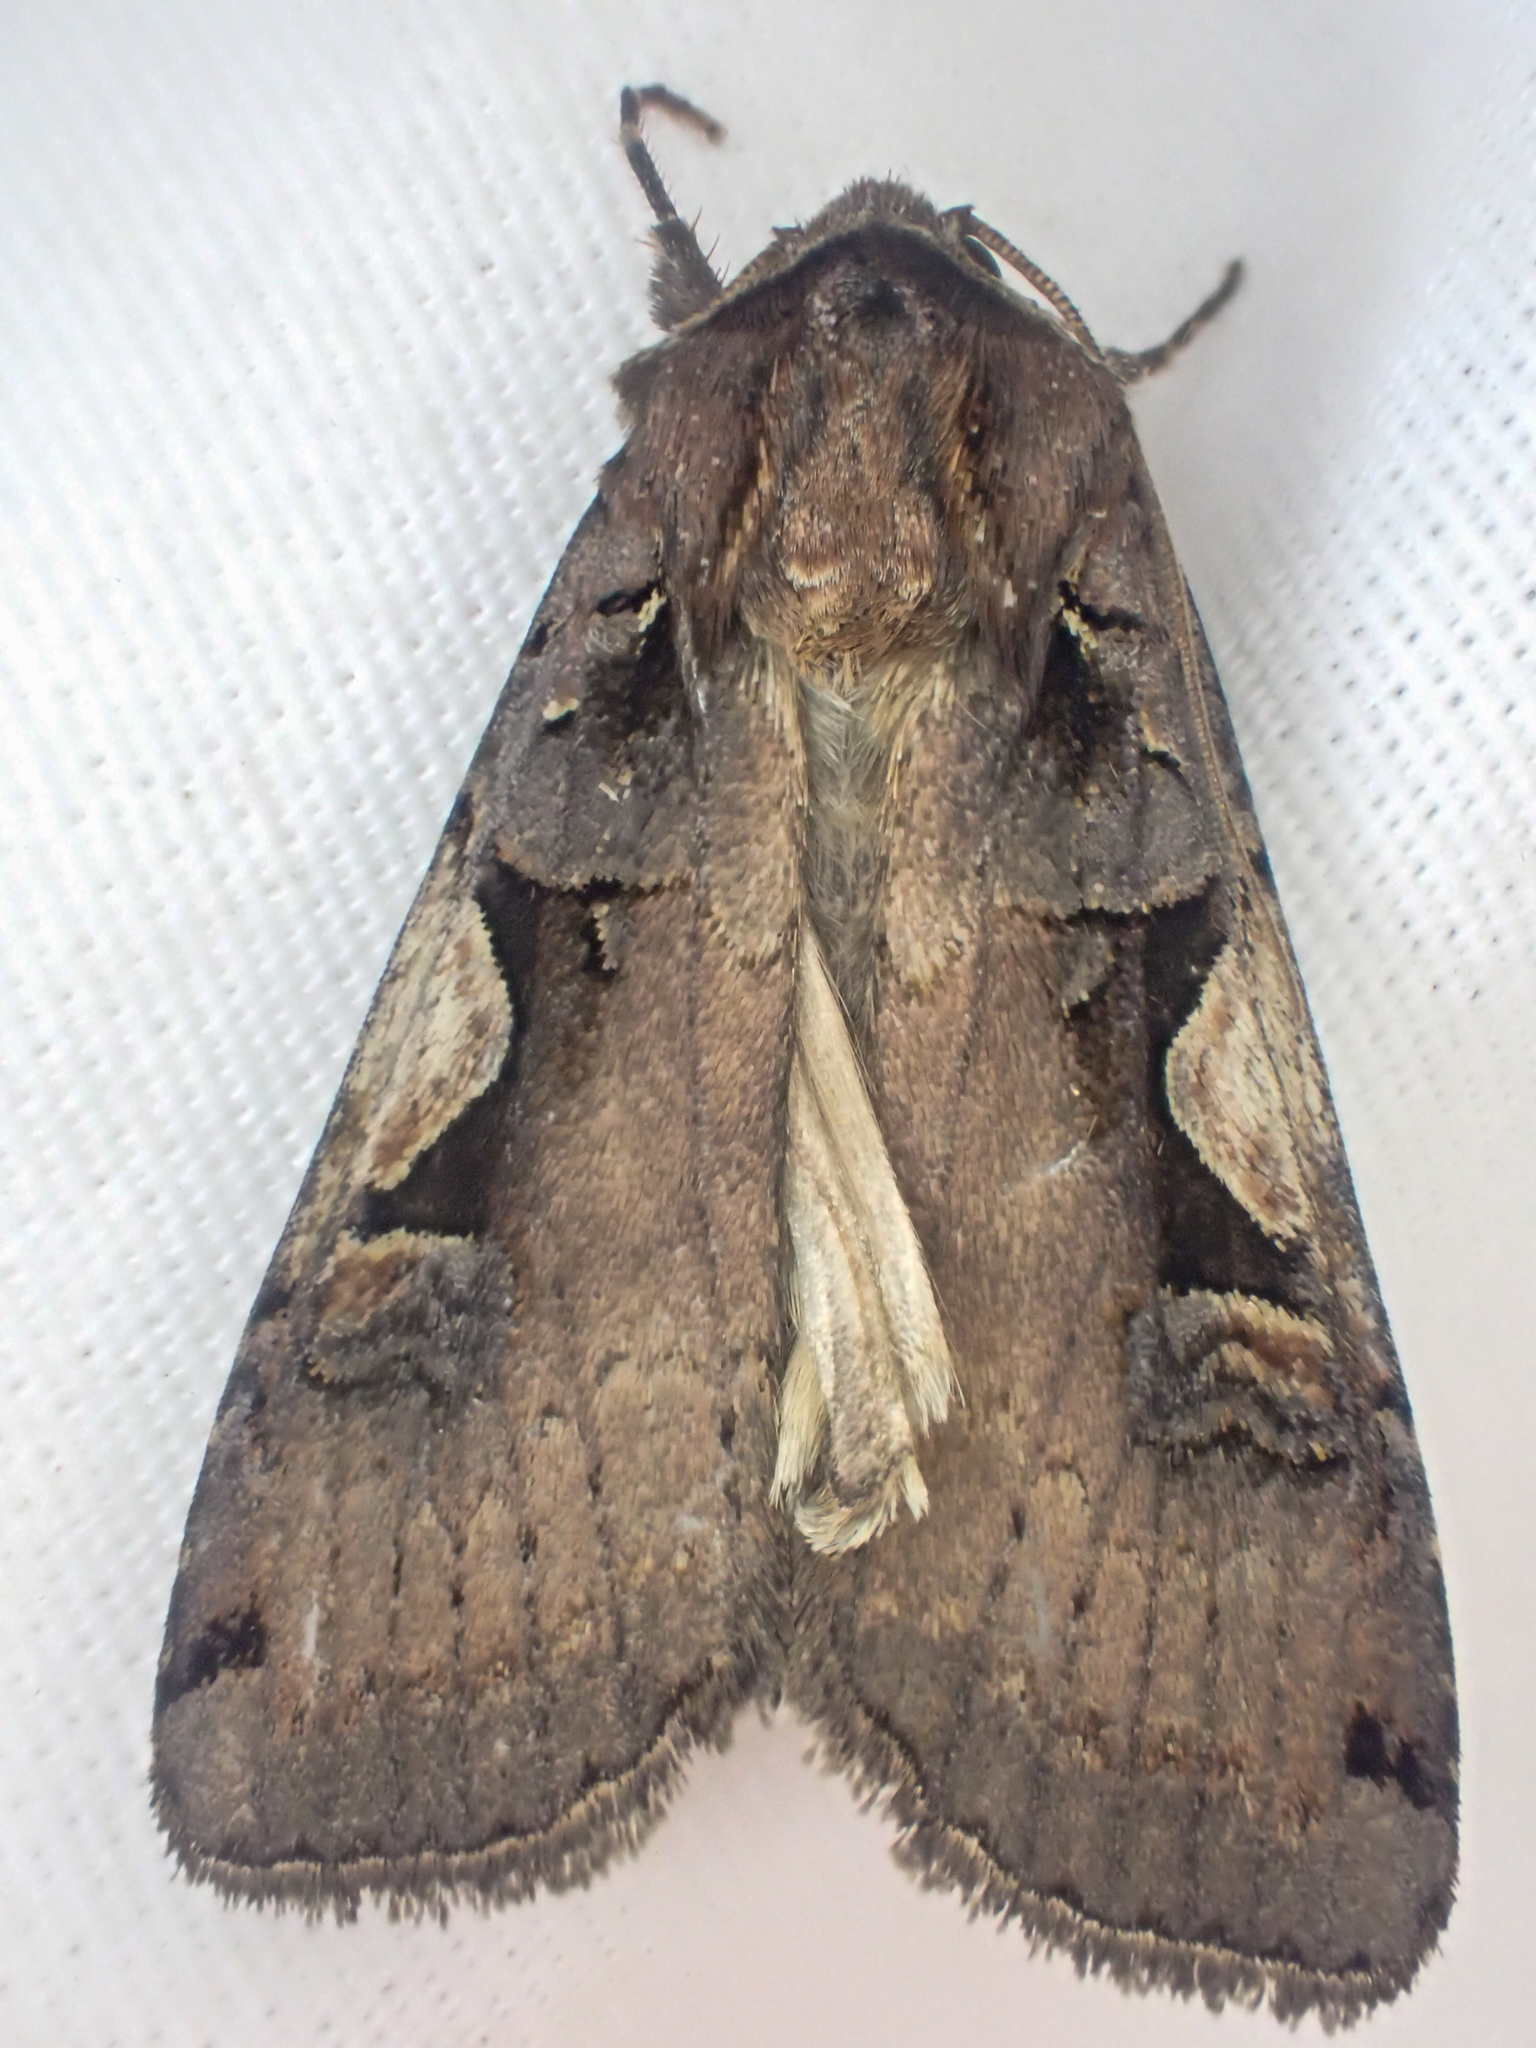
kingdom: Animalia
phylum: Arthropoda
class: Insecta
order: Lepidoptera
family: Noctuidae
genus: Xestia
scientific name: Xestia c-nigrum
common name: Setaceous hebrew character
